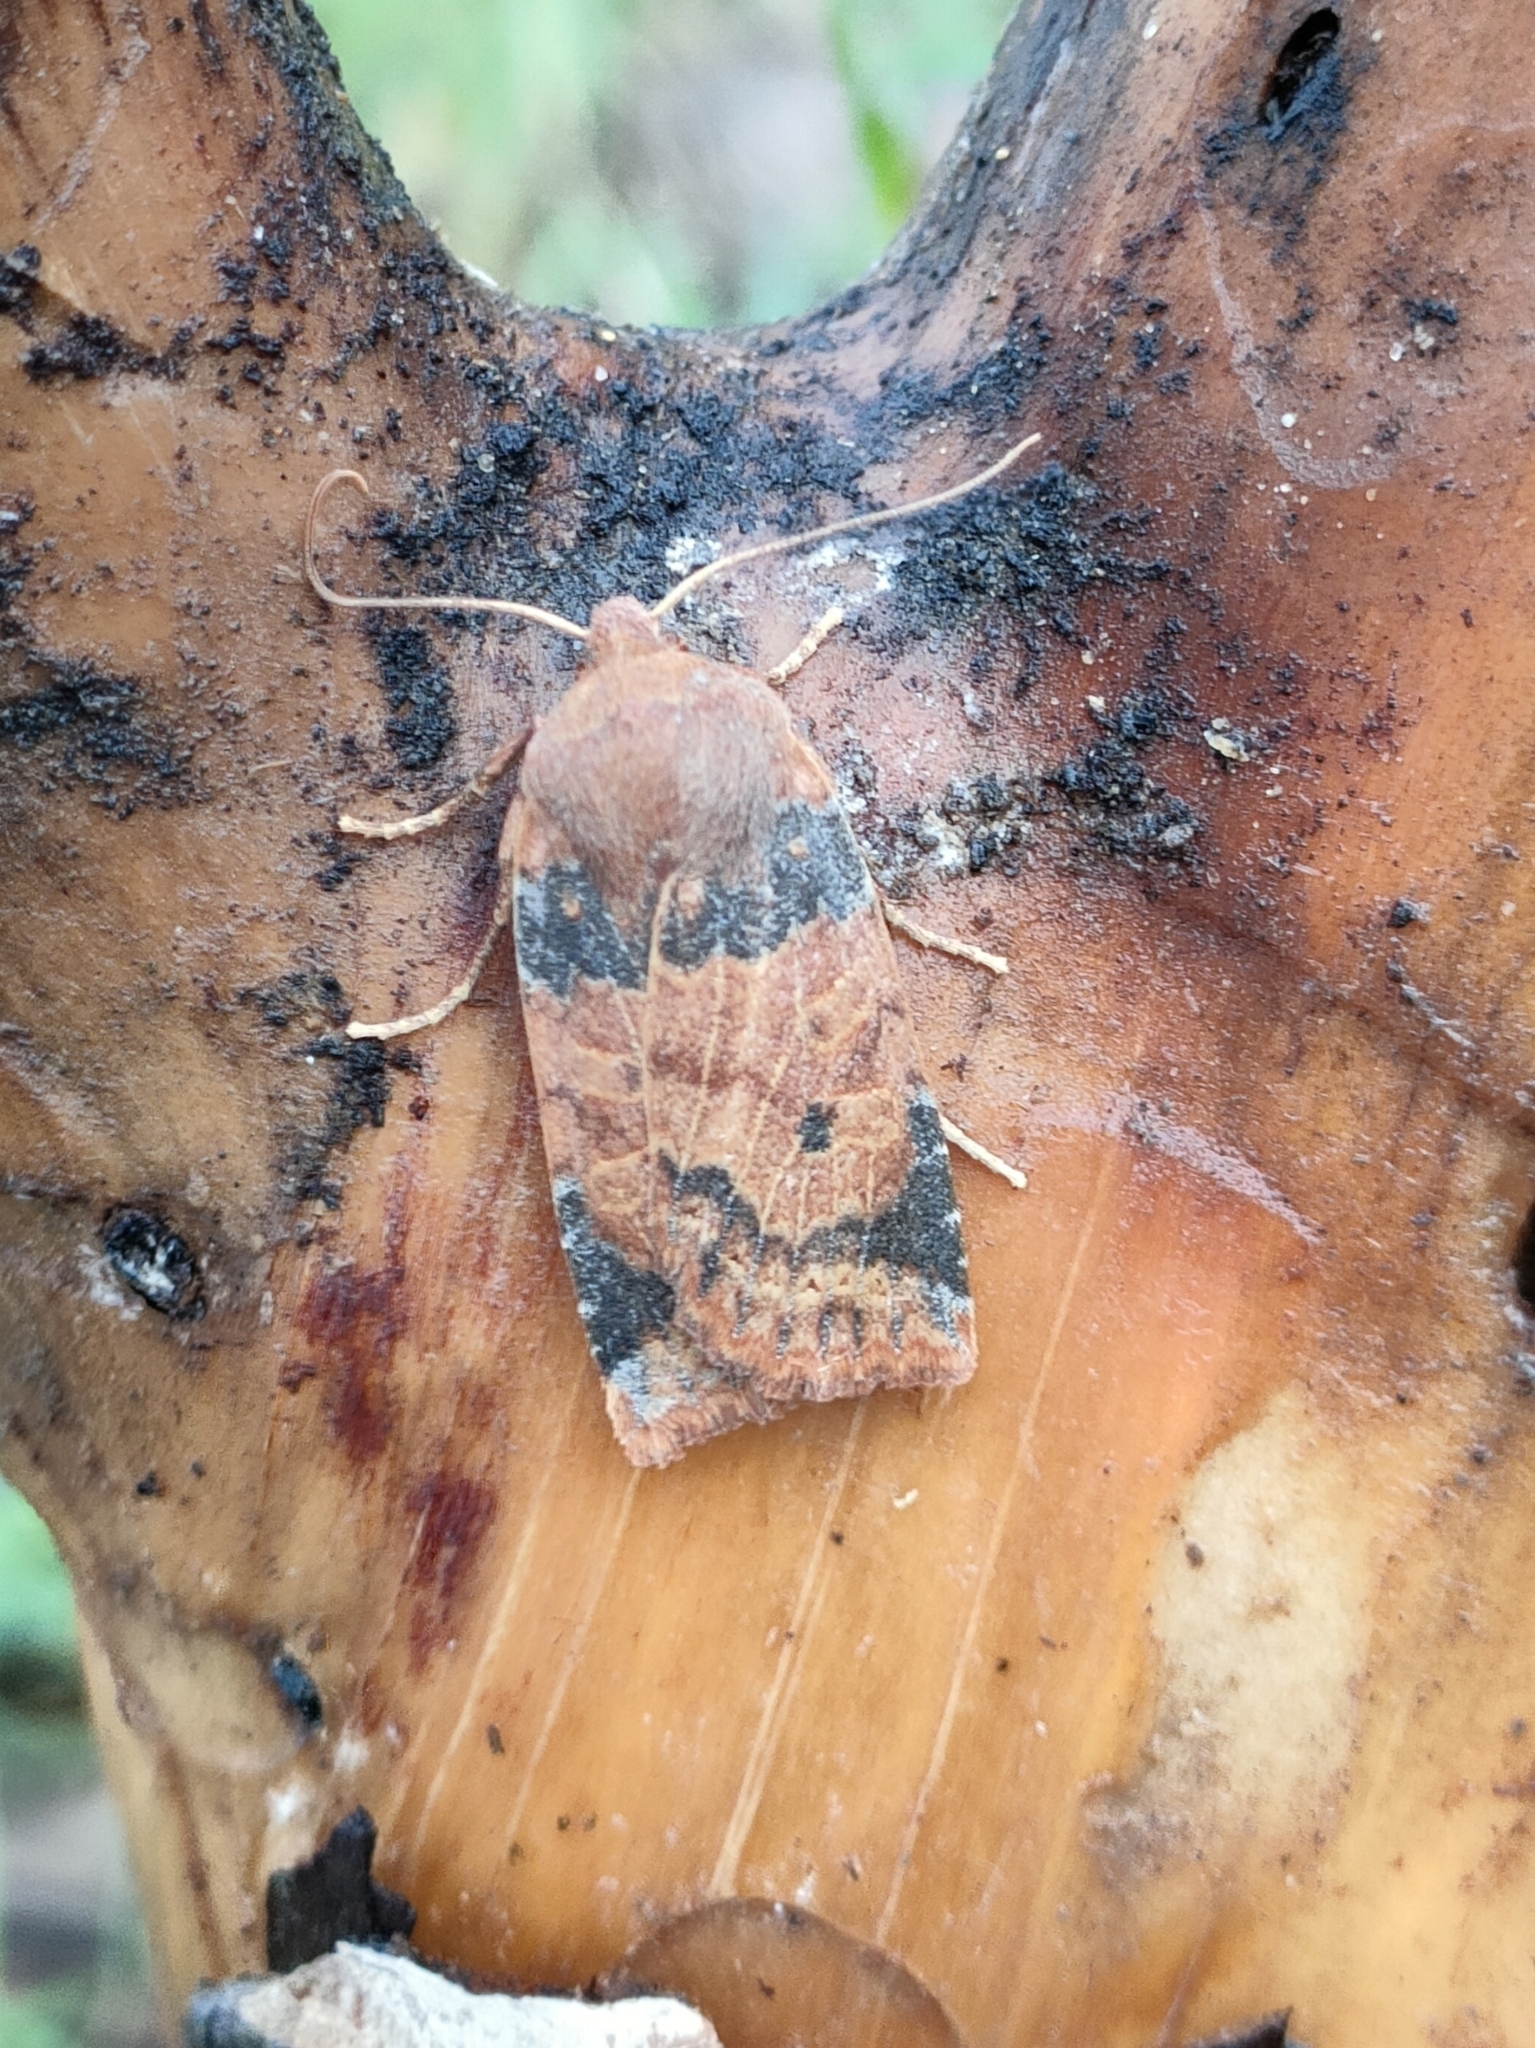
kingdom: Animalia
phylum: Arthropoda
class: Insecta
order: Lepidoptera
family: Noctuidae
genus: Conistra
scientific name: Conistra ligula
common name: Dark chestnut
